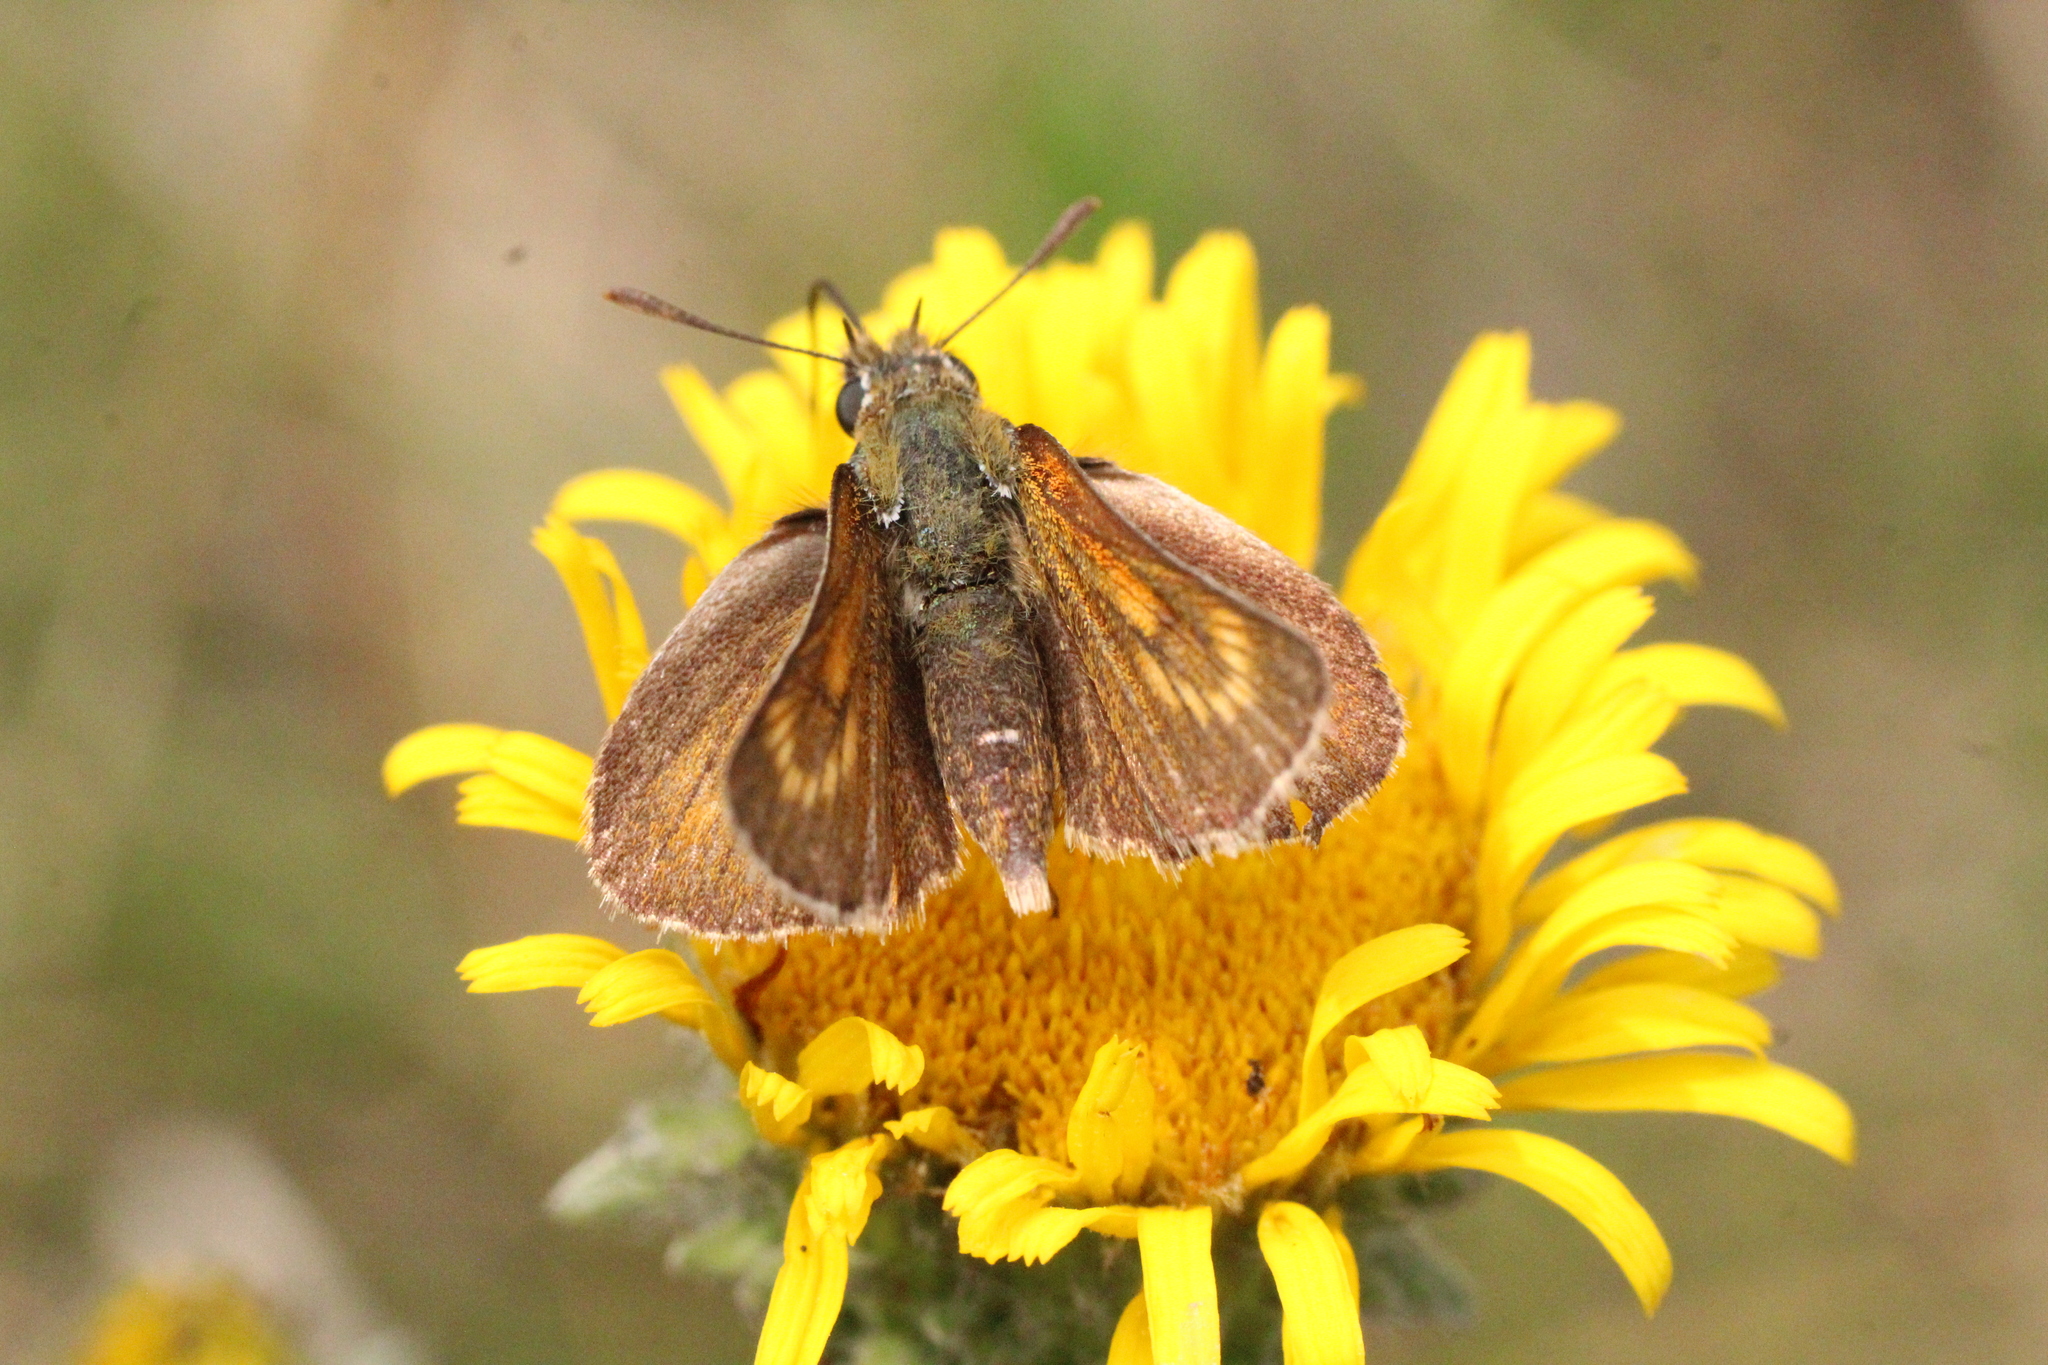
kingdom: Animalia
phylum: Arthropoda
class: Insecta
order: Lepidoptera
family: Hesperiidae
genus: Thymelicus
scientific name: Thymelicus acteon
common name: Lulworth skipper
